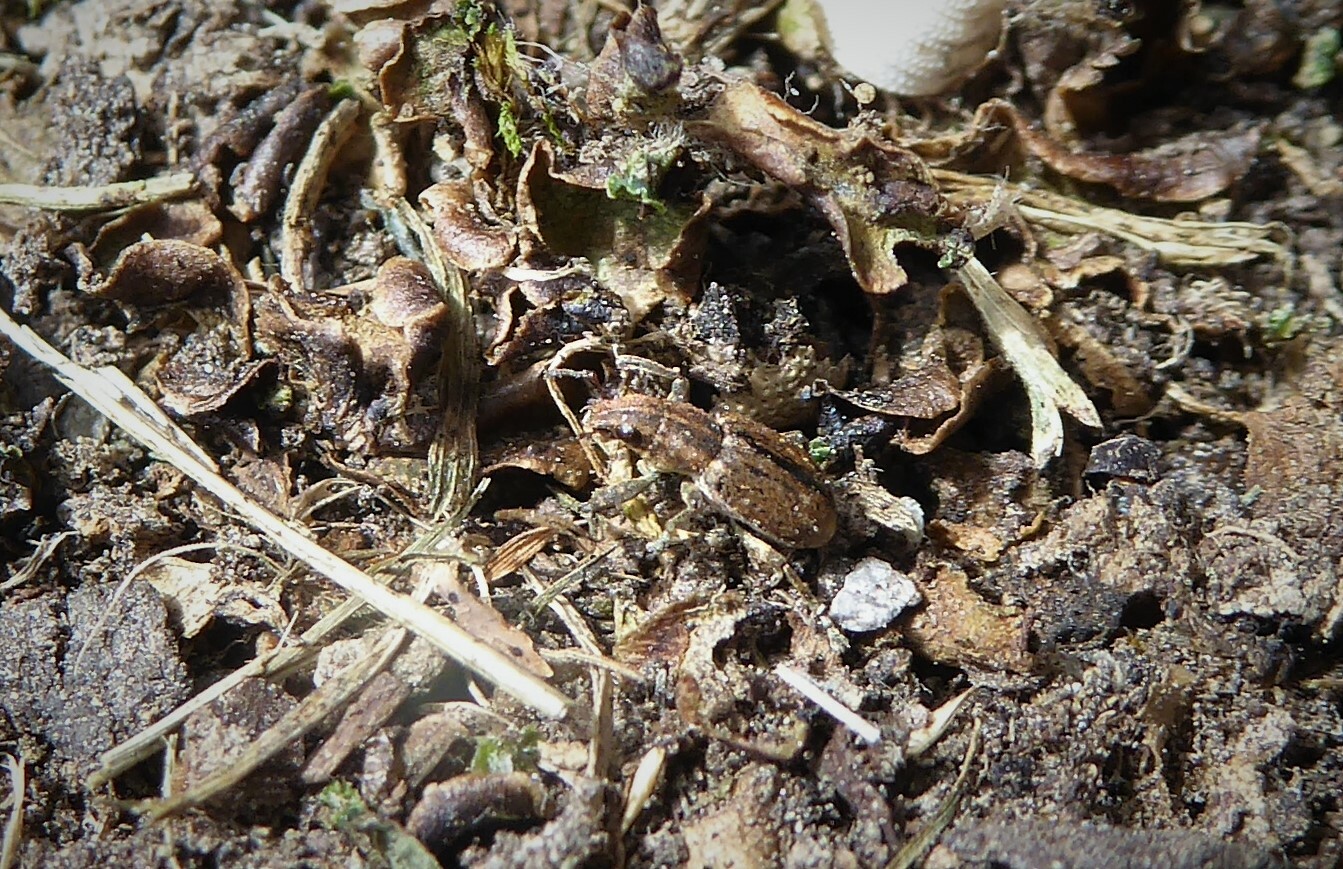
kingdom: Animalia
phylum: Arthropoda
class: Insecta
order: Coleoptera
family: Curculionidae
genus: Sitona
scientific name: Sitona obsoletus
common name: Weevil
